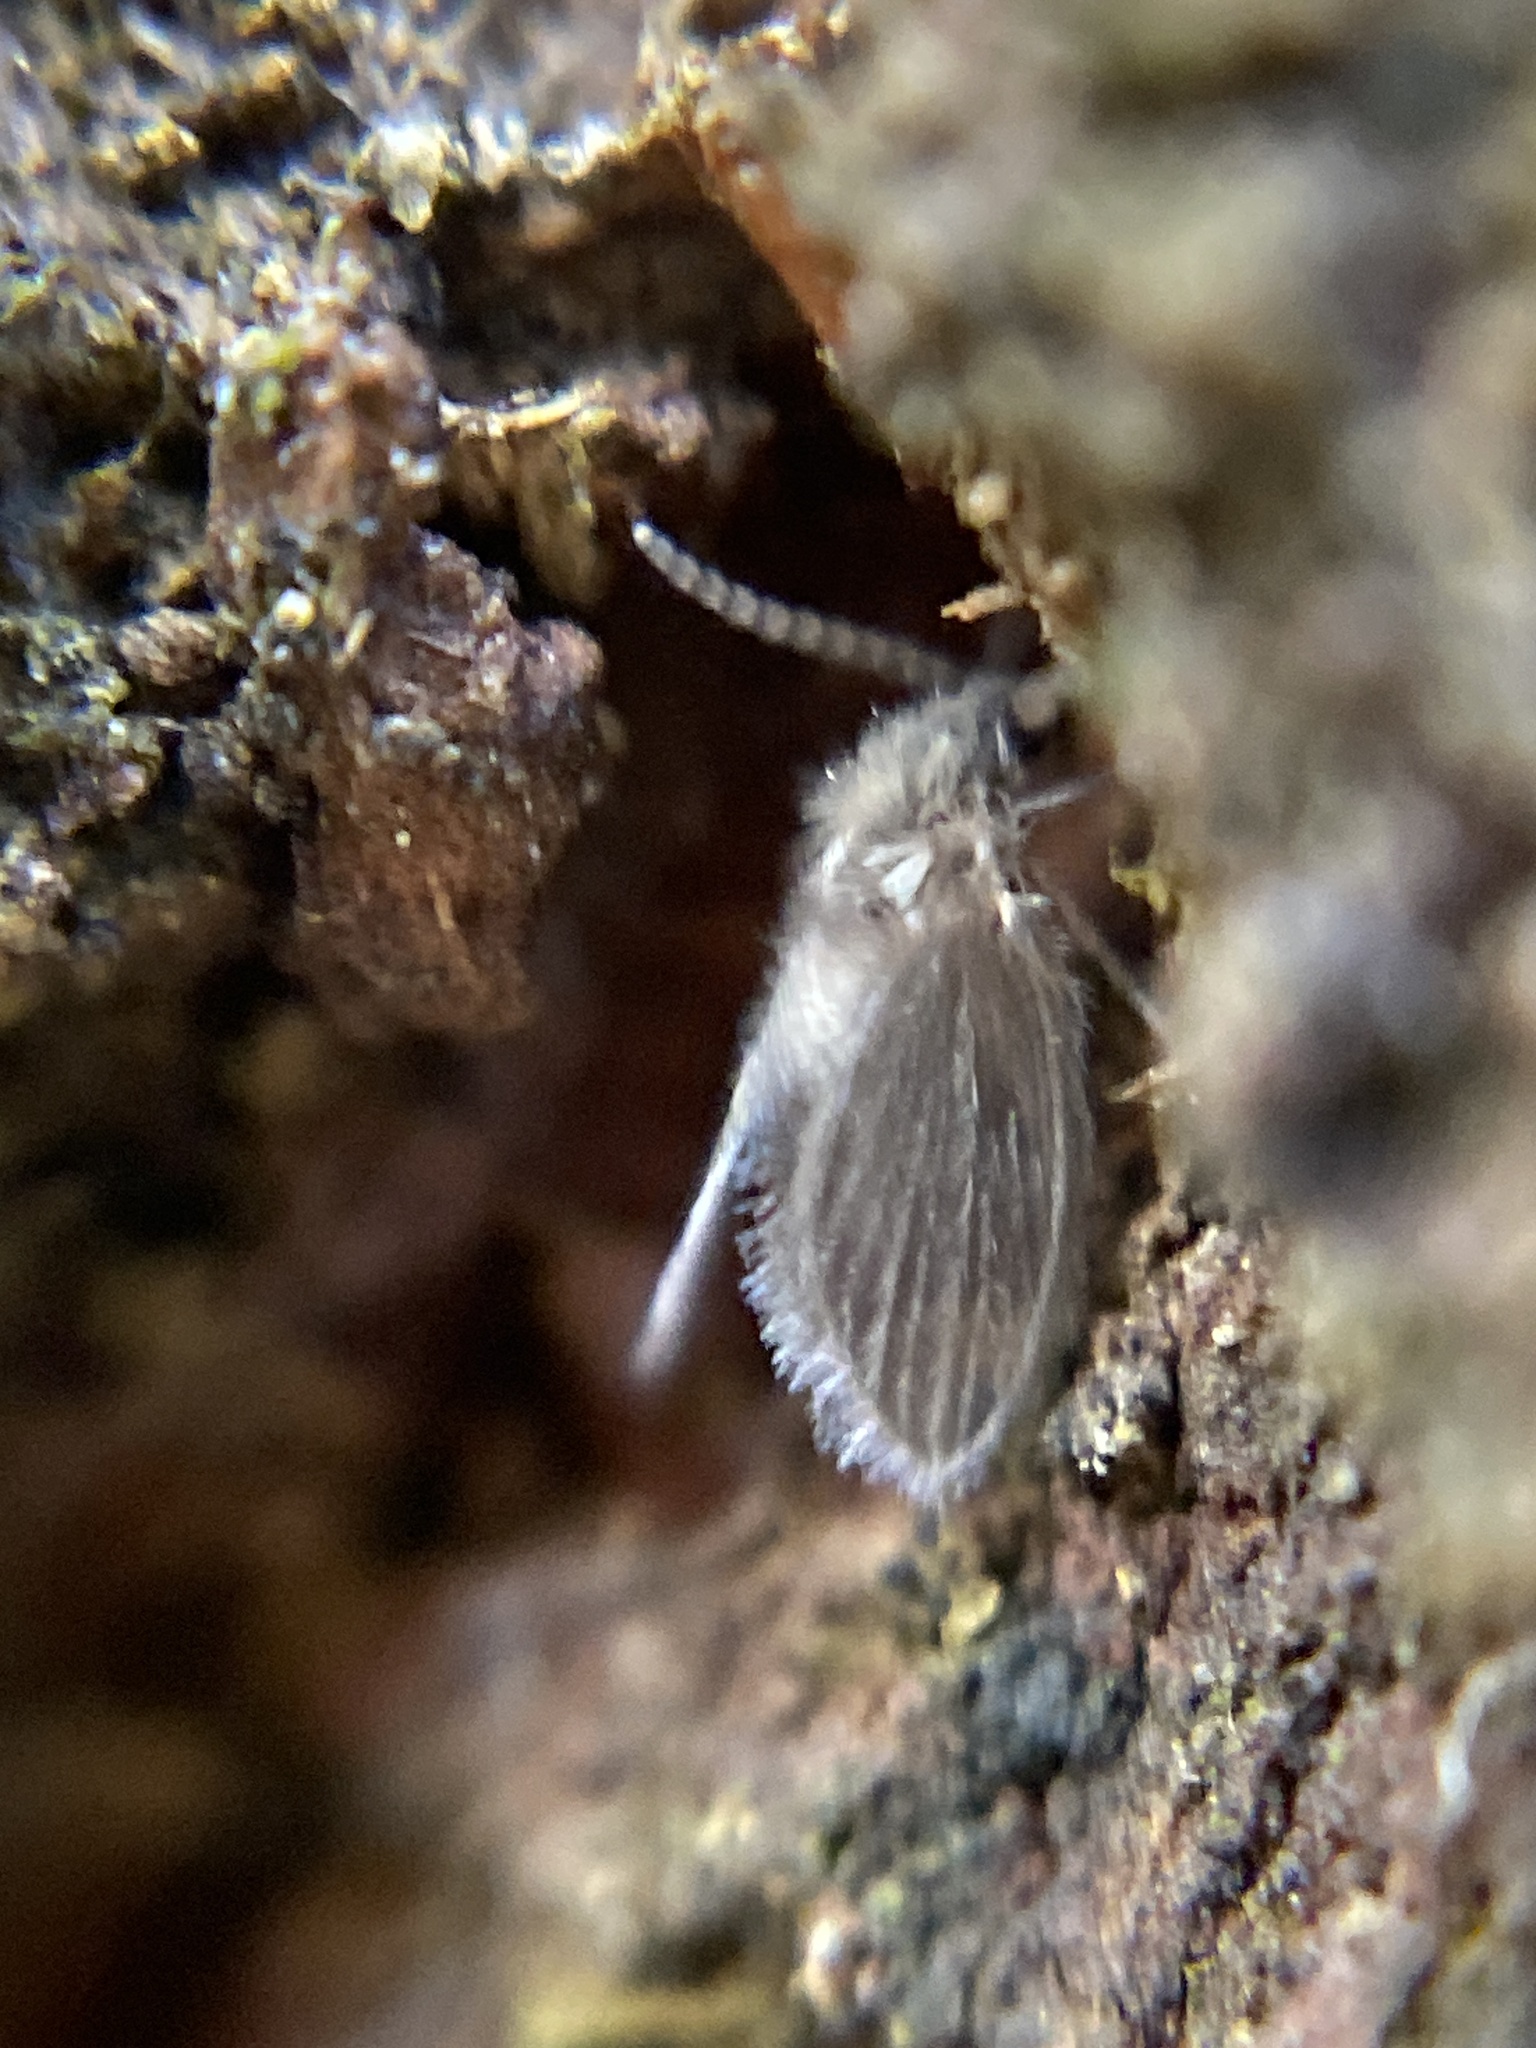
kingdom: Animalia
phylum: Arthropoda
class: Insecta
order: Diptera
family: Psychodidae
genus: Psychoda
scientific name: Psychoda grisescens
